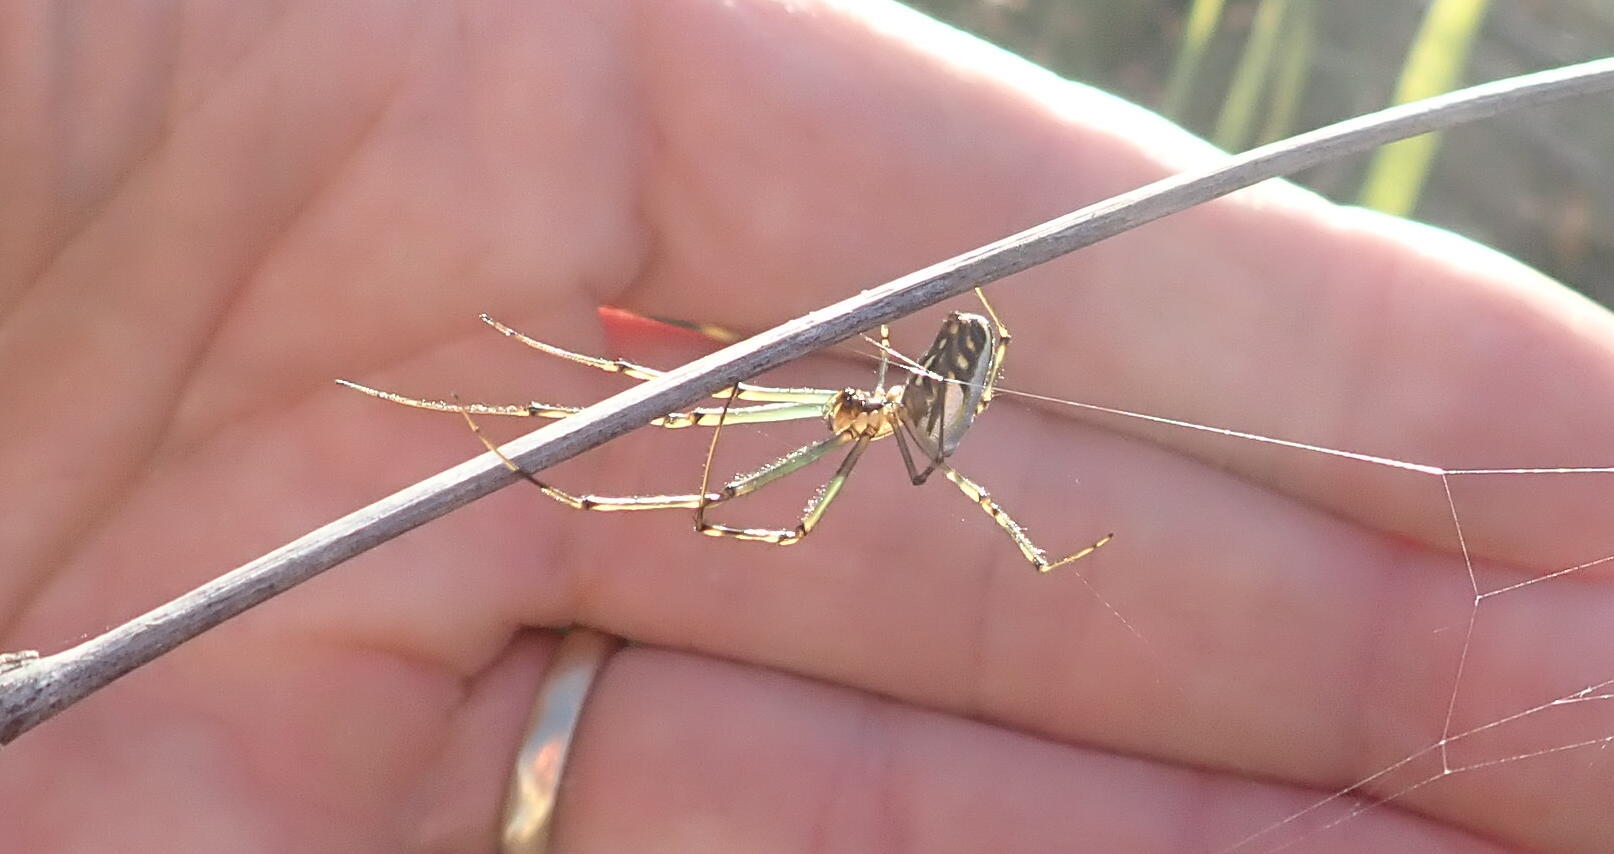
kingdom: Animalia
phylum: Arthropoda
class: Arachnida
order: Araneae
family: Tetragnathidae
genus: Leucauge
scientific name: Leucauge dromedaria
